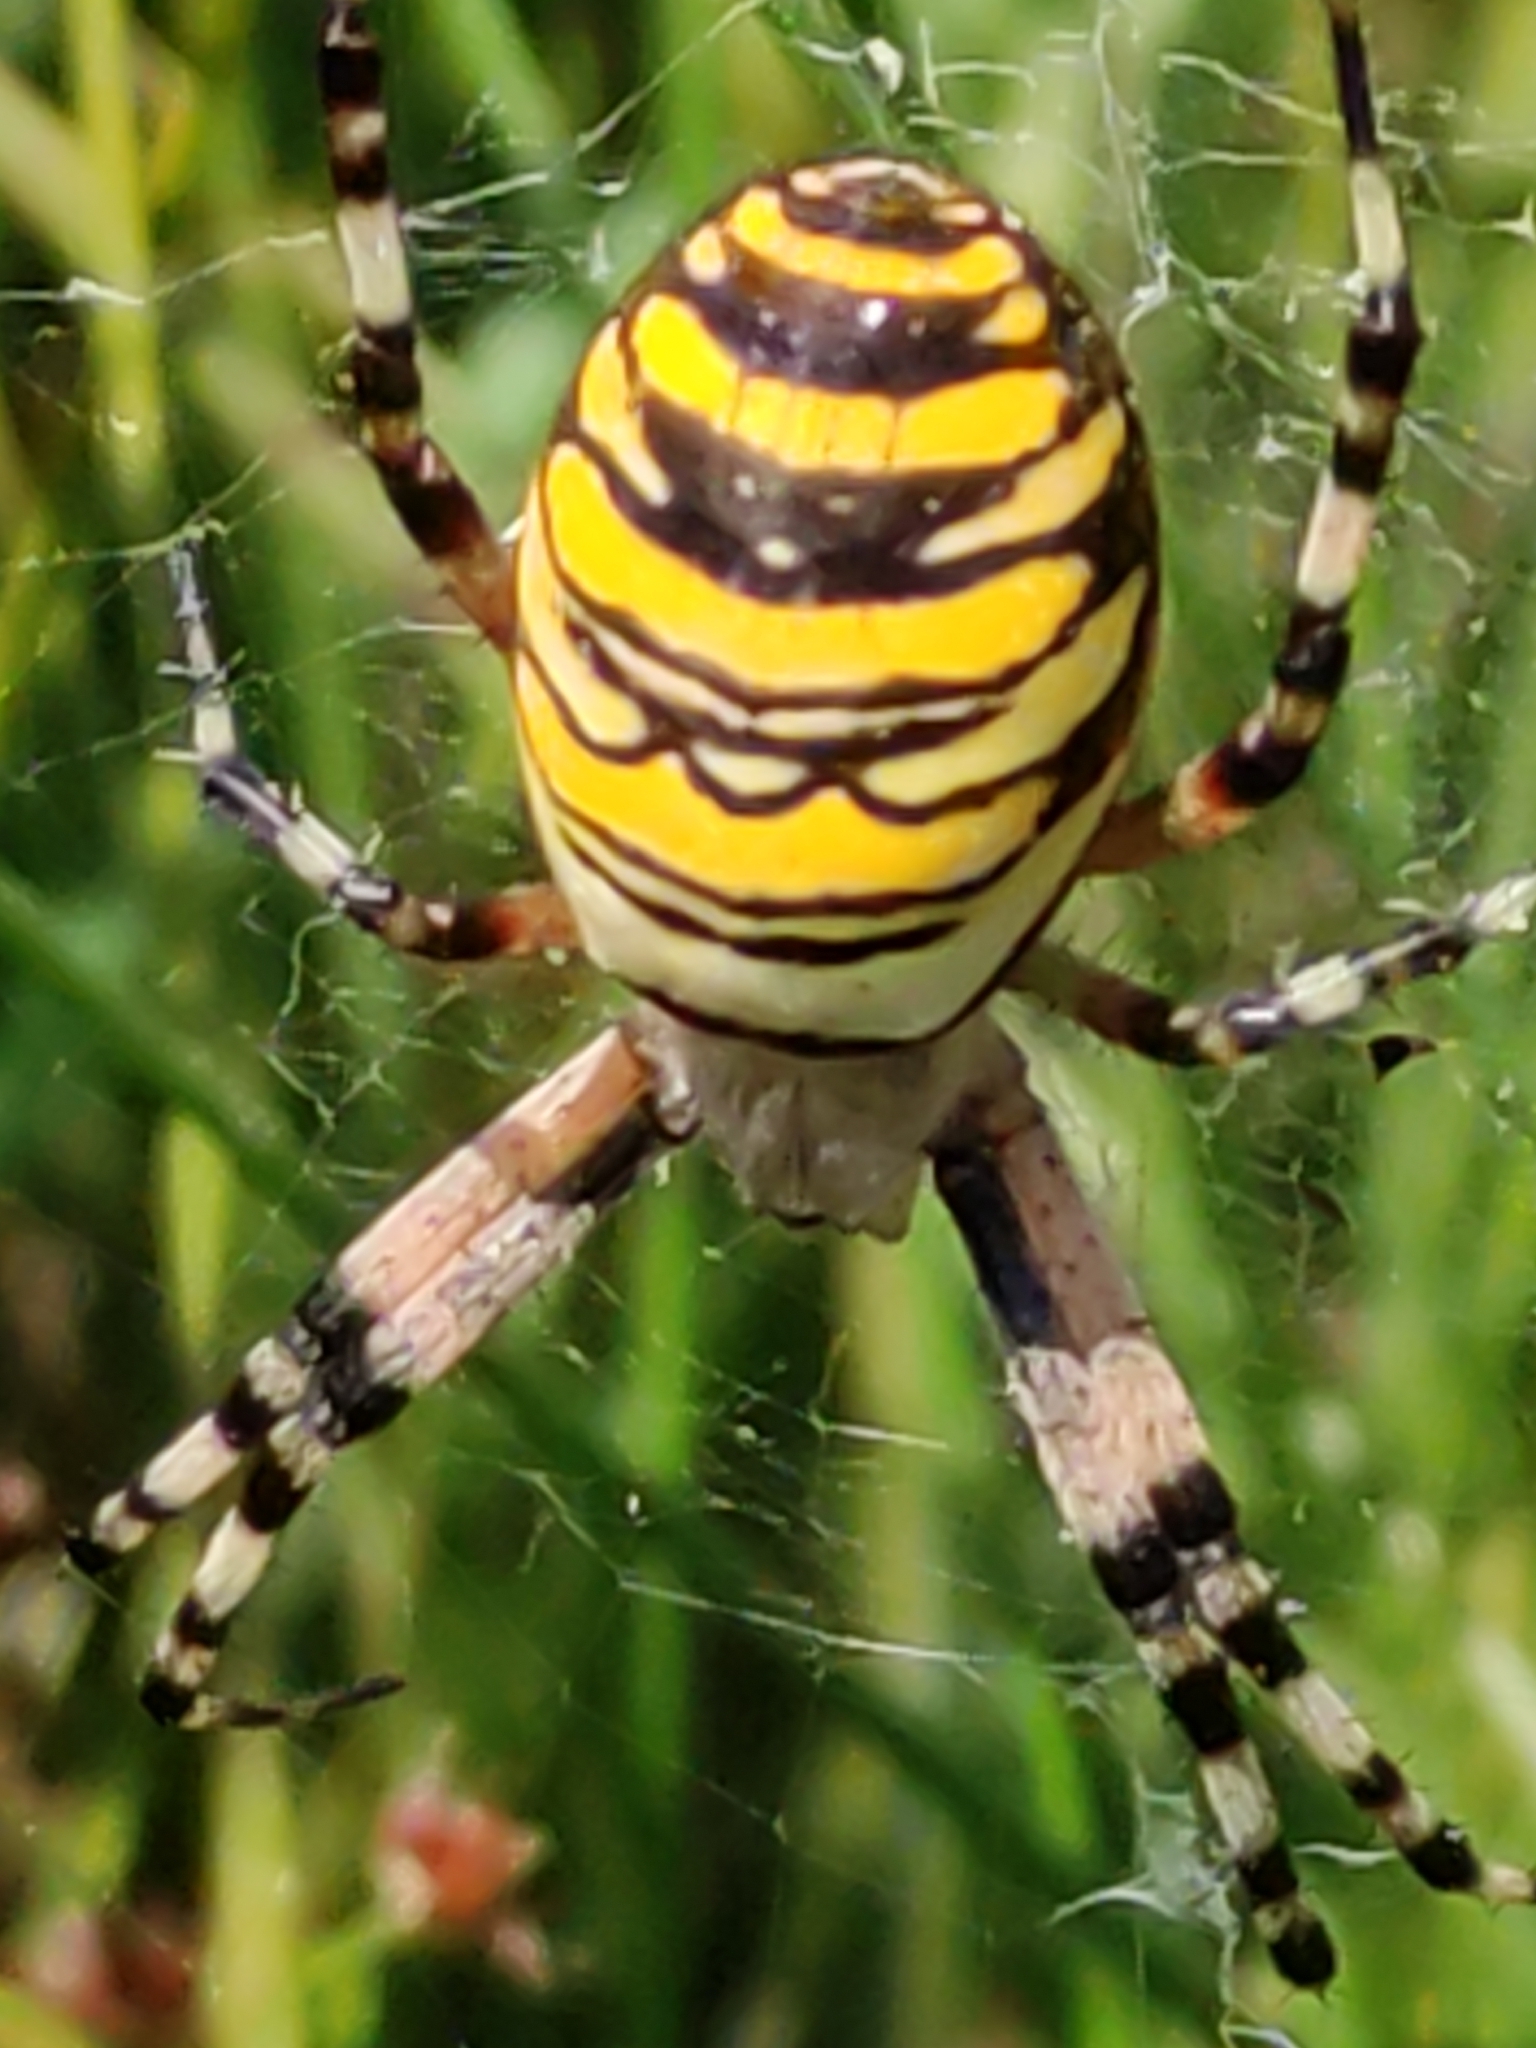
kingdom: Animalia
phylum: Arthropoda
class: Arachnida
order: Araneae
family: Araneidae
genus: Argiope
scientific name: Argiope bruennichi
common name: Wasp spider
